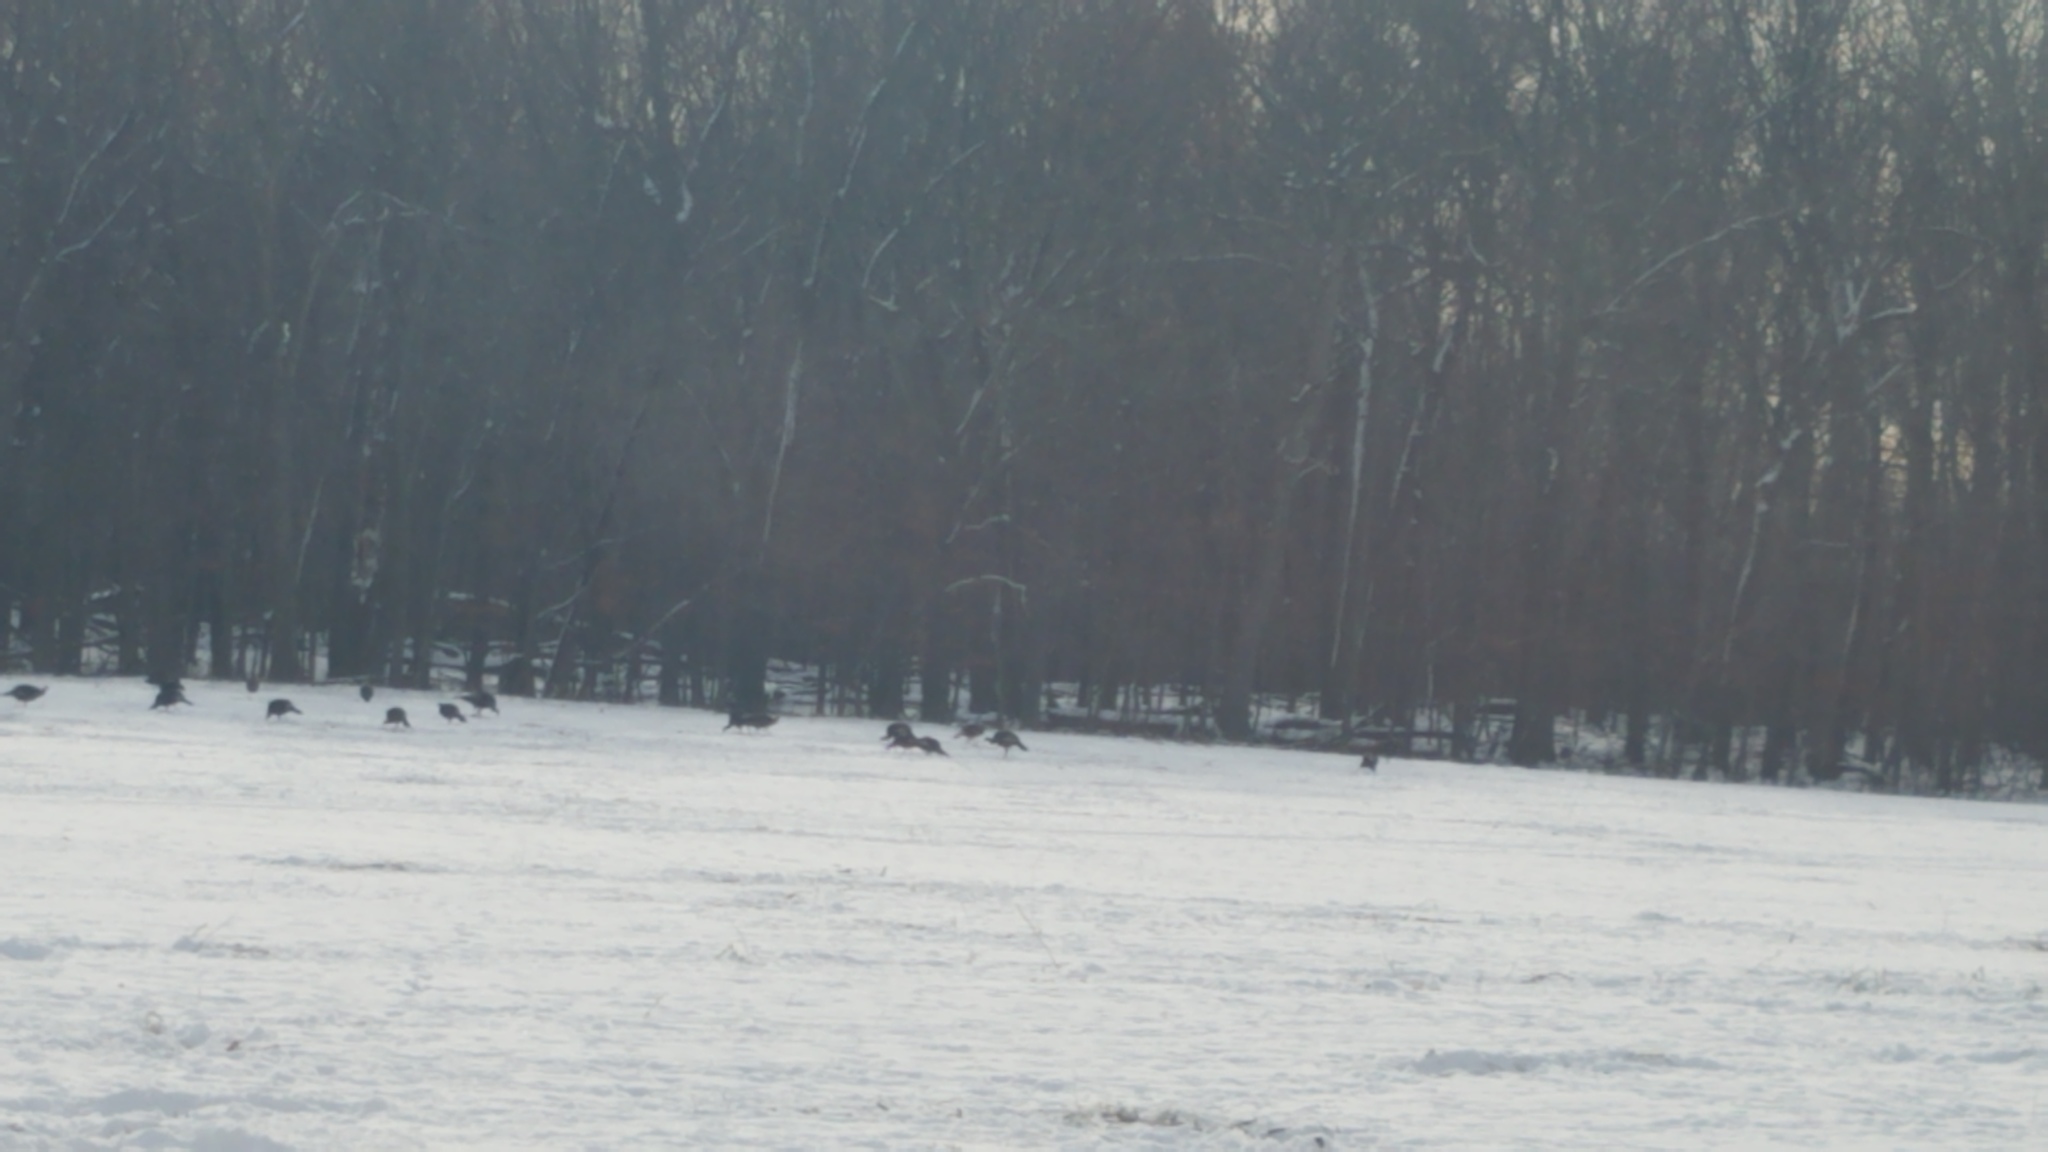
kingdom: Animalia
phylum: Chordata
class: Aves
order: Galliformes
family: Phasianidae
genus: Meleagris
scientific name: Meleagris gallopavo
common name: Wild turkey
